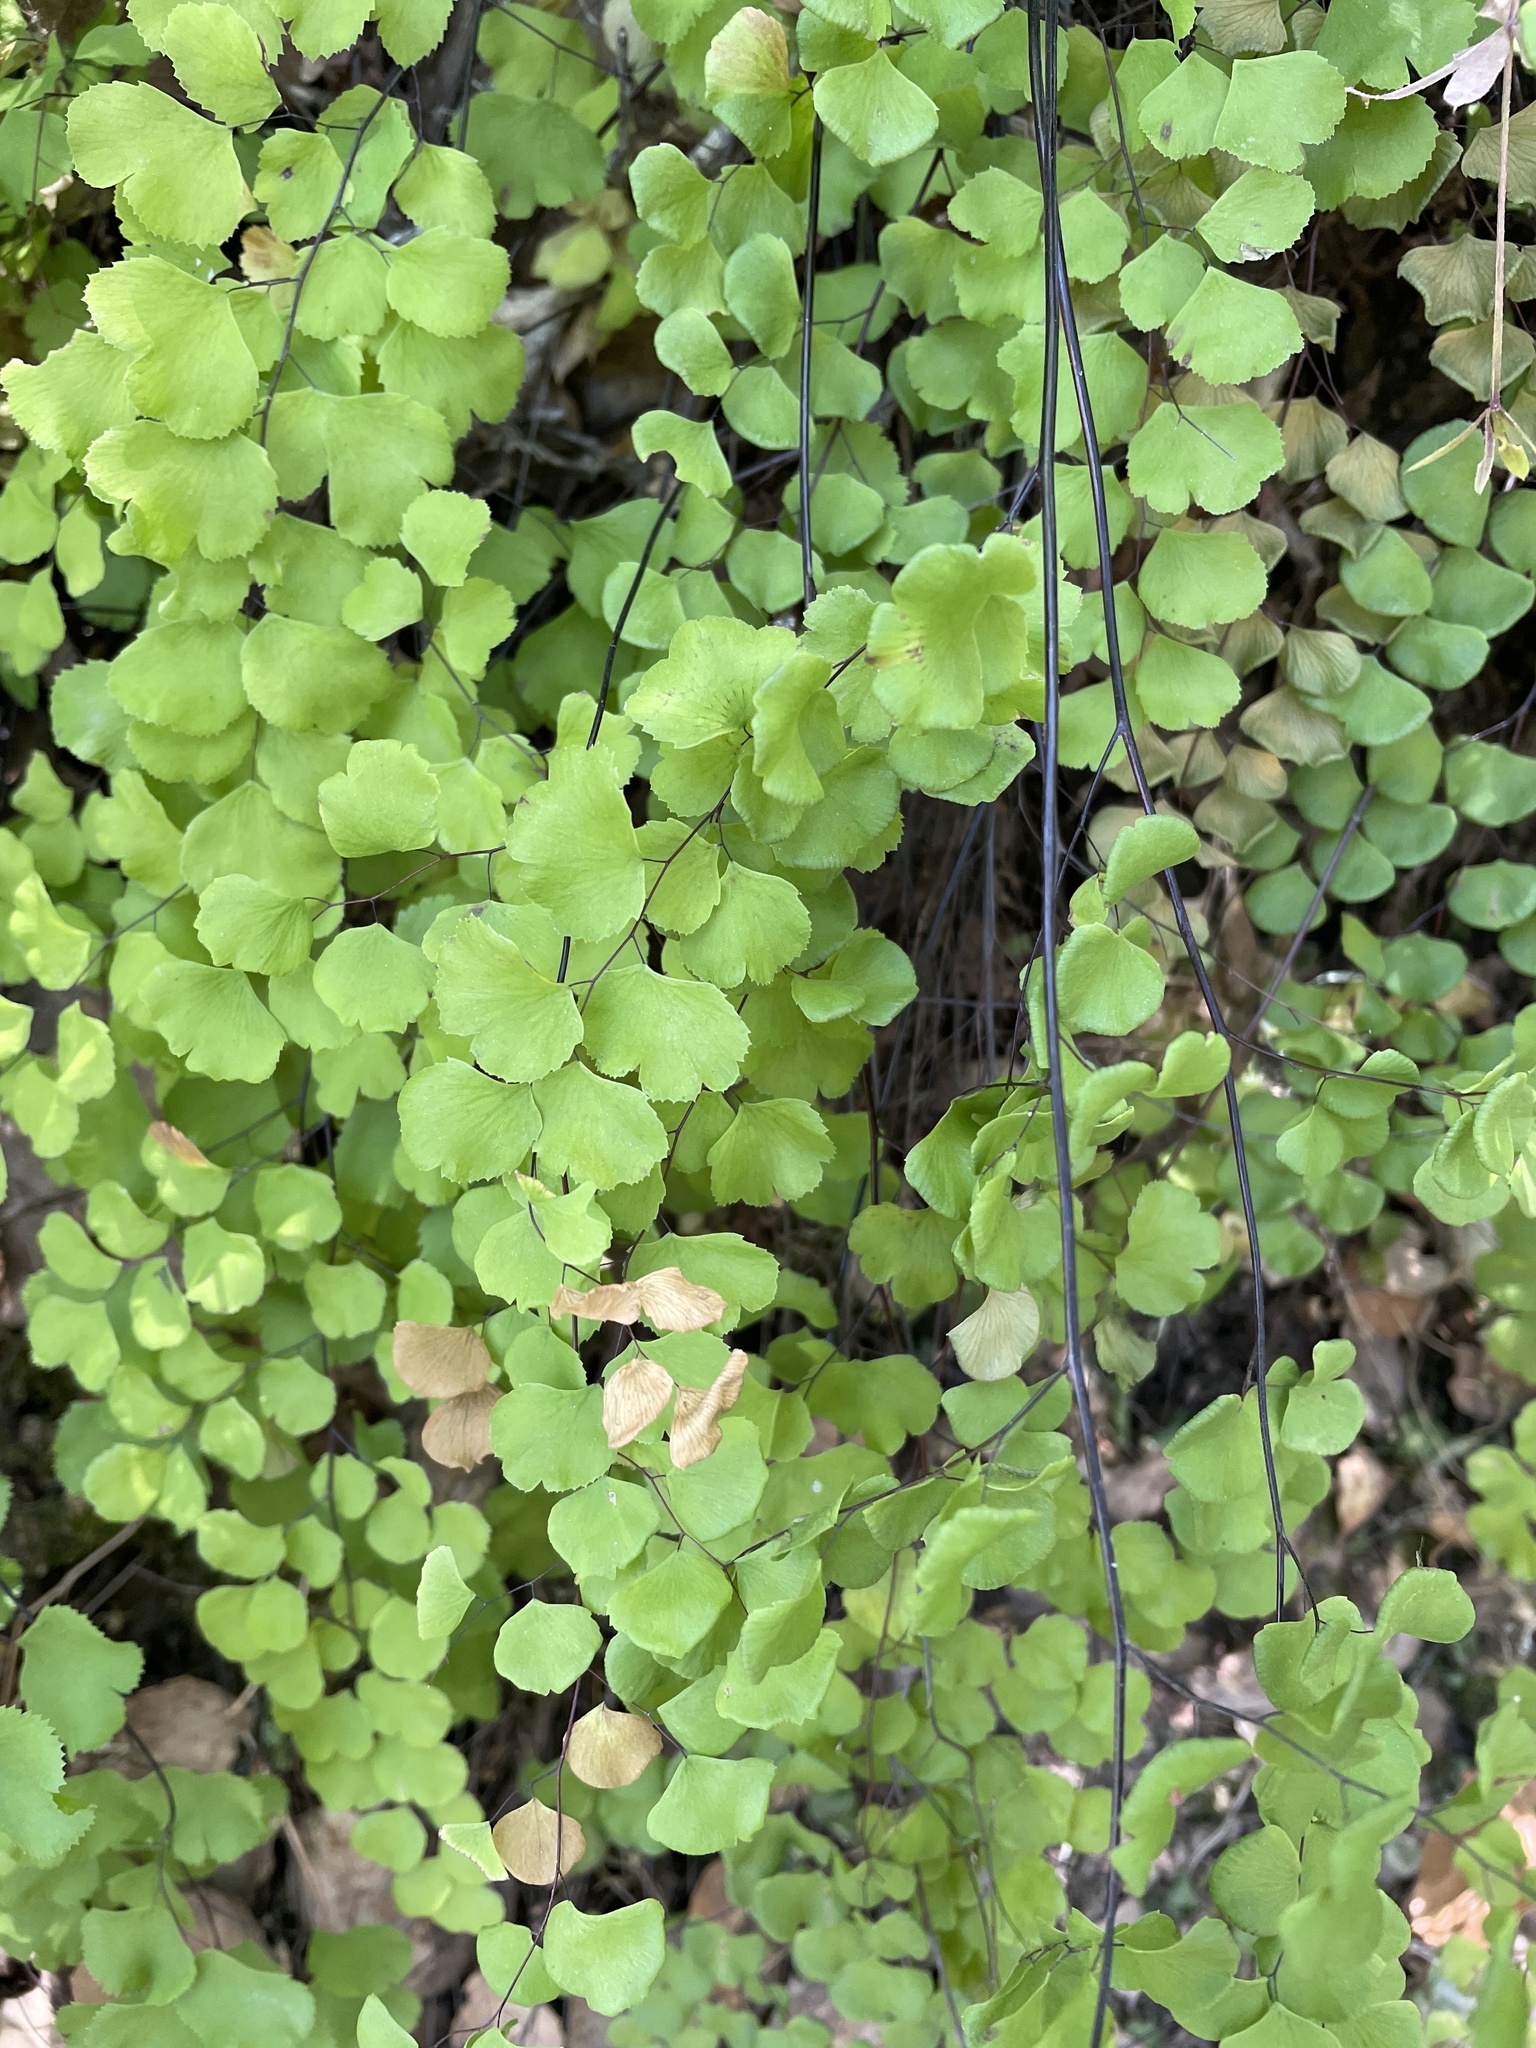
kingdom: Plantae
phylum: Tracheophyta
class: Polypodiopsida
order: Polypodiales
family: Pteridaceae
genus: Adiantum
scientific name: Adiantum jordanii
